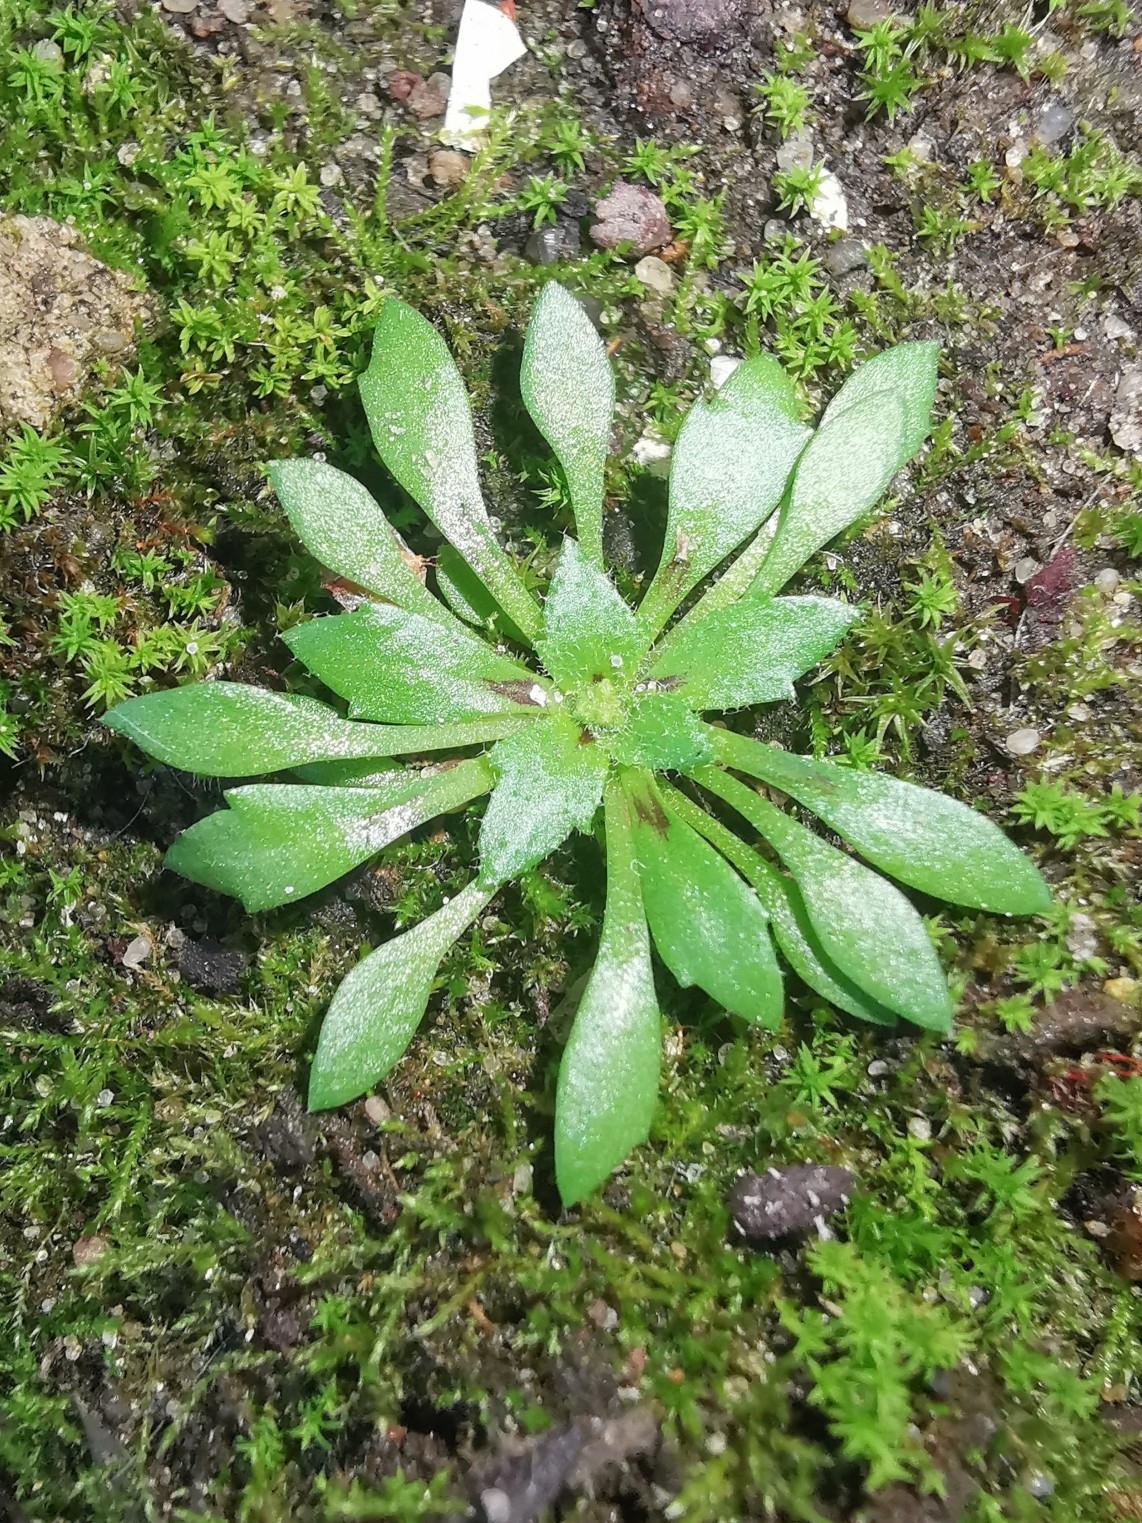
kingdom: Plantae
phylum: Tracheophyta
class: Magnoliopsida
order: Brassicales
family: Brassicaceae
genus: Draba
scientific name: Draba verna
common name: Spring draba
